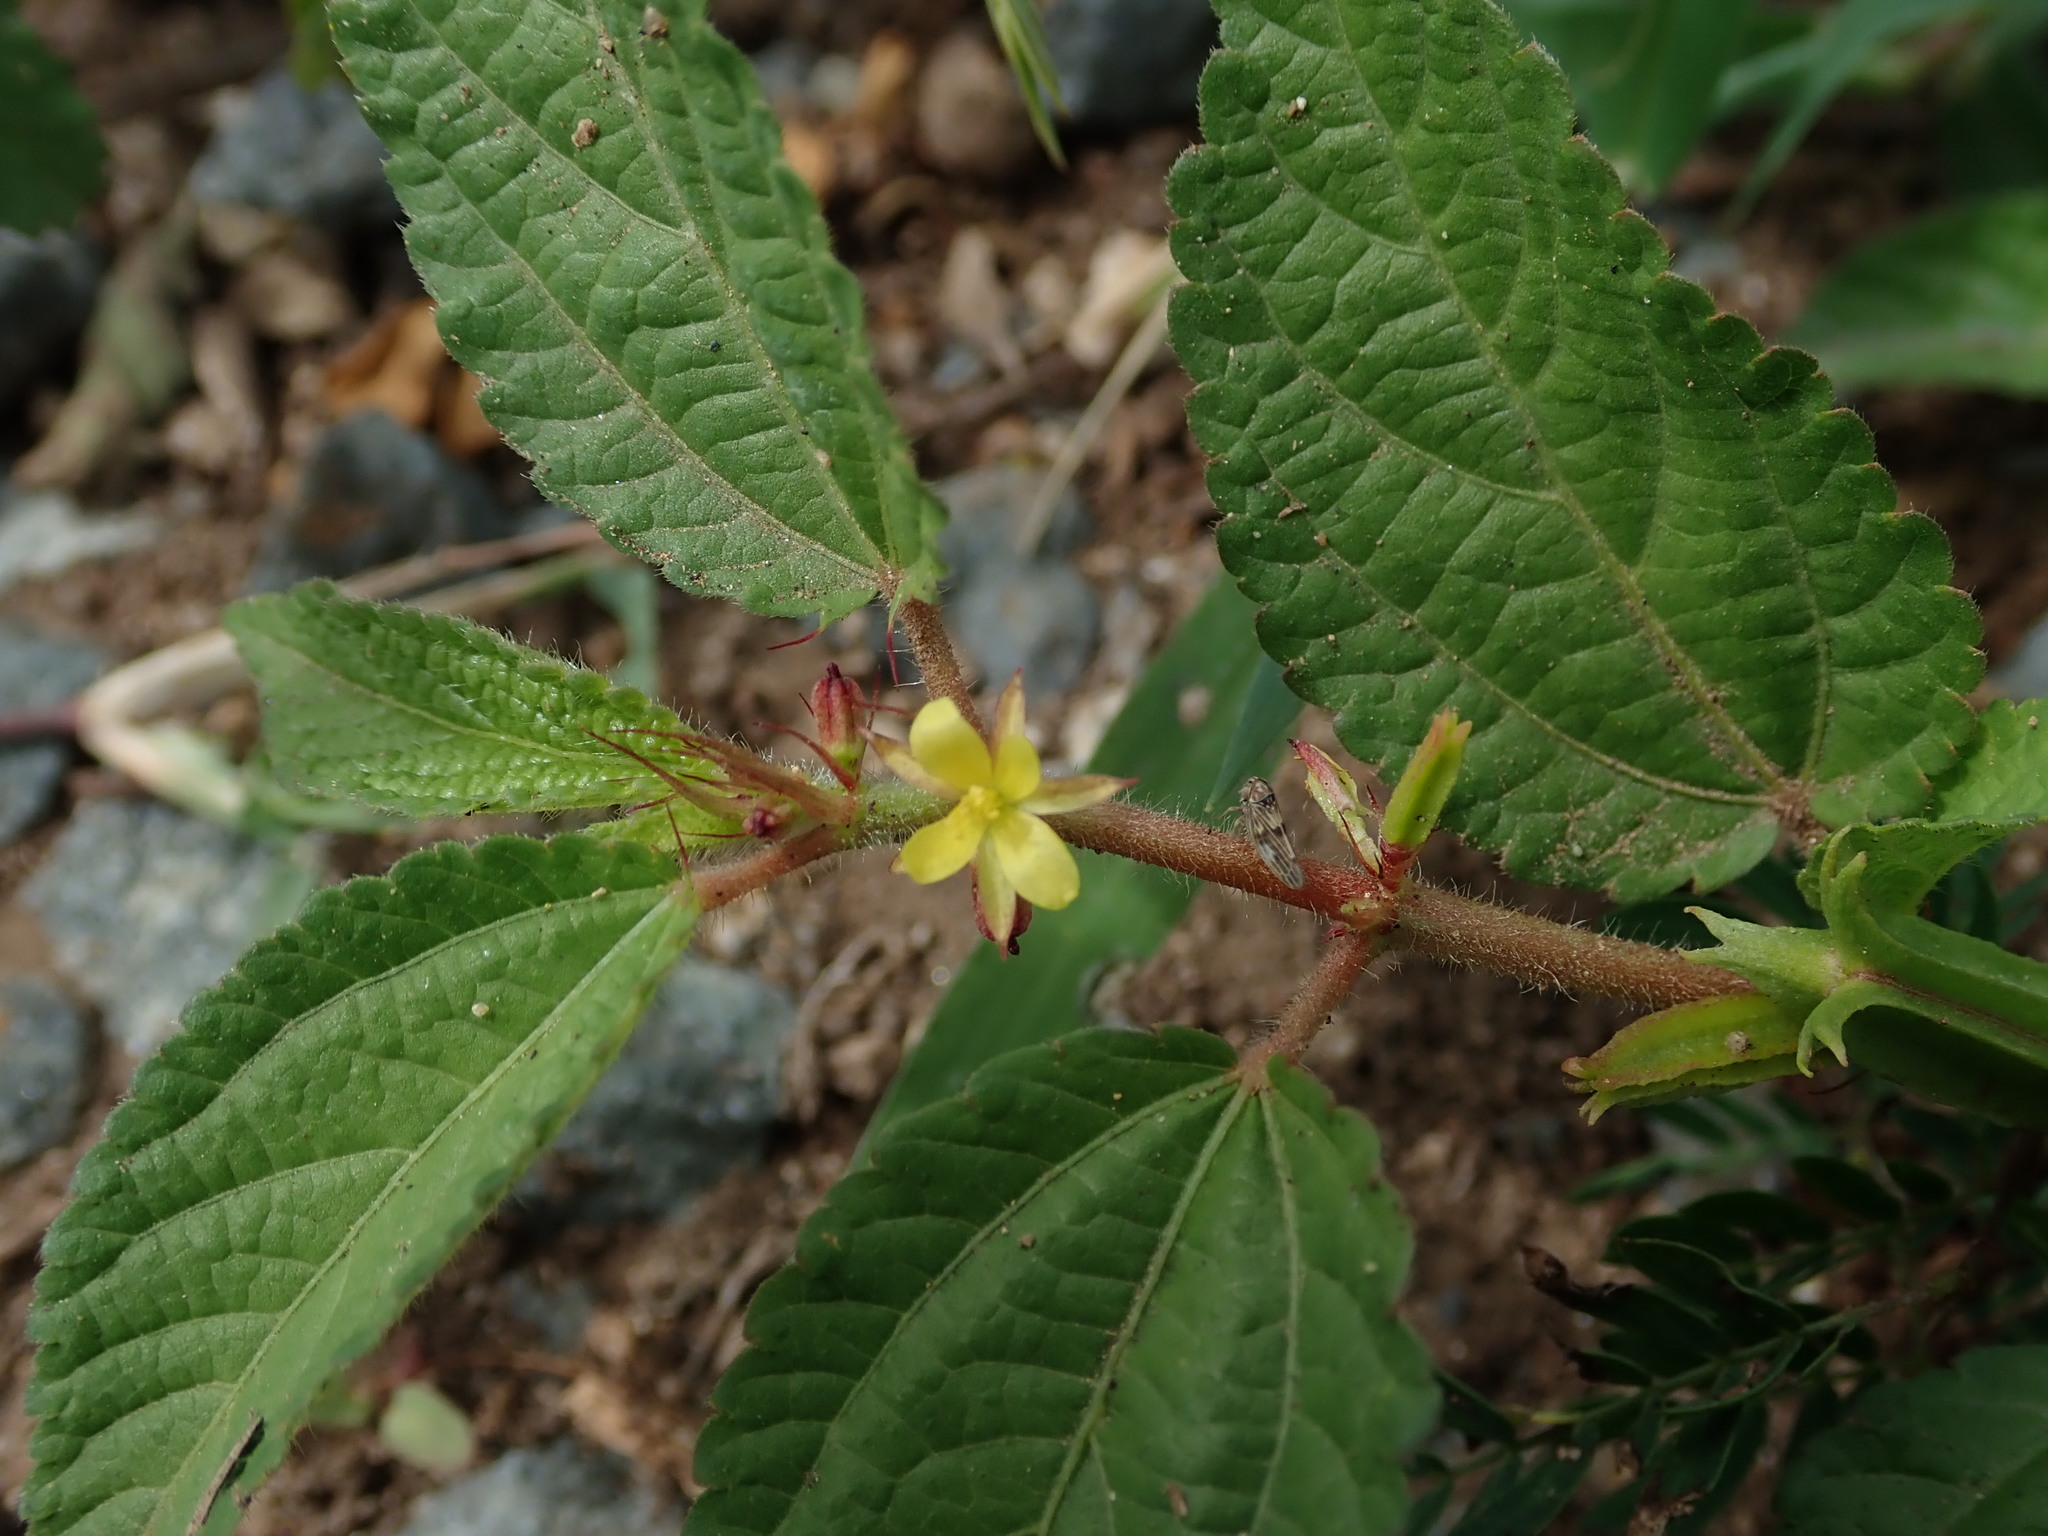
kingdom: Plantae
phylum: Tracheophyta
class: Magnoliopsida
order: Malvales
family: Malvaceae
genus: Corchorus
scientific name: Corchorus aestuans
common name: Jute
